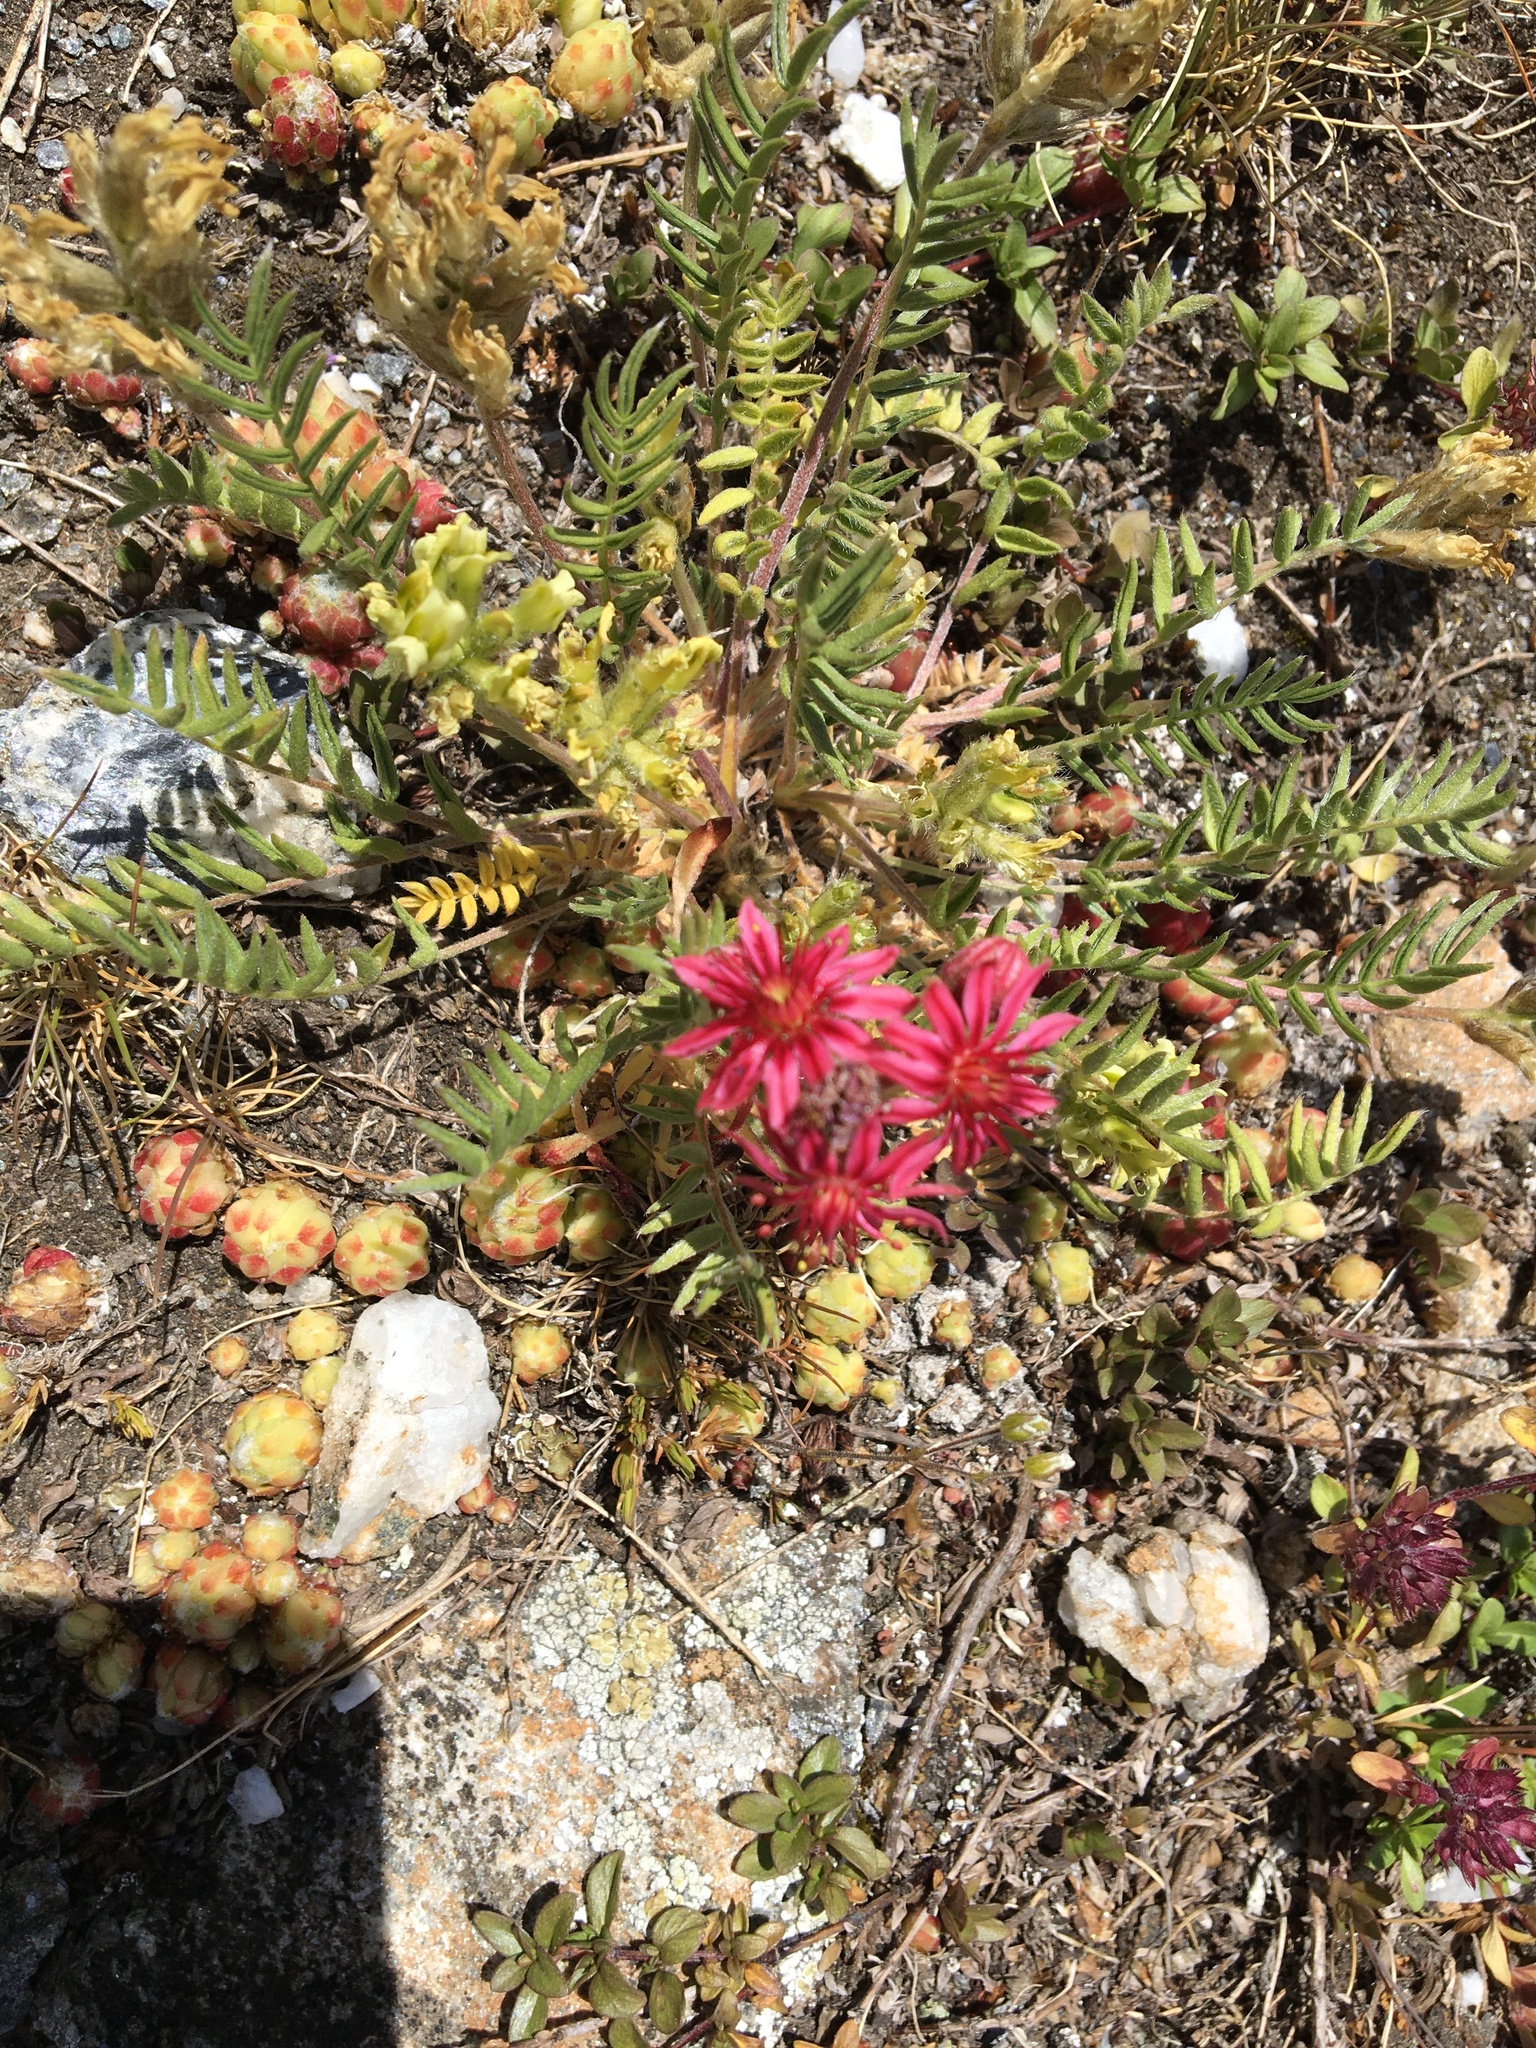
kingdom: Plantae
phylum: Tracheophyta
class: Magnoliopsida
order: Saxifragales
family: Crassulaceae
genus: Sempervivum
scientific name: Sempervivum arachnoideum
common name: Cobweb house-leek
